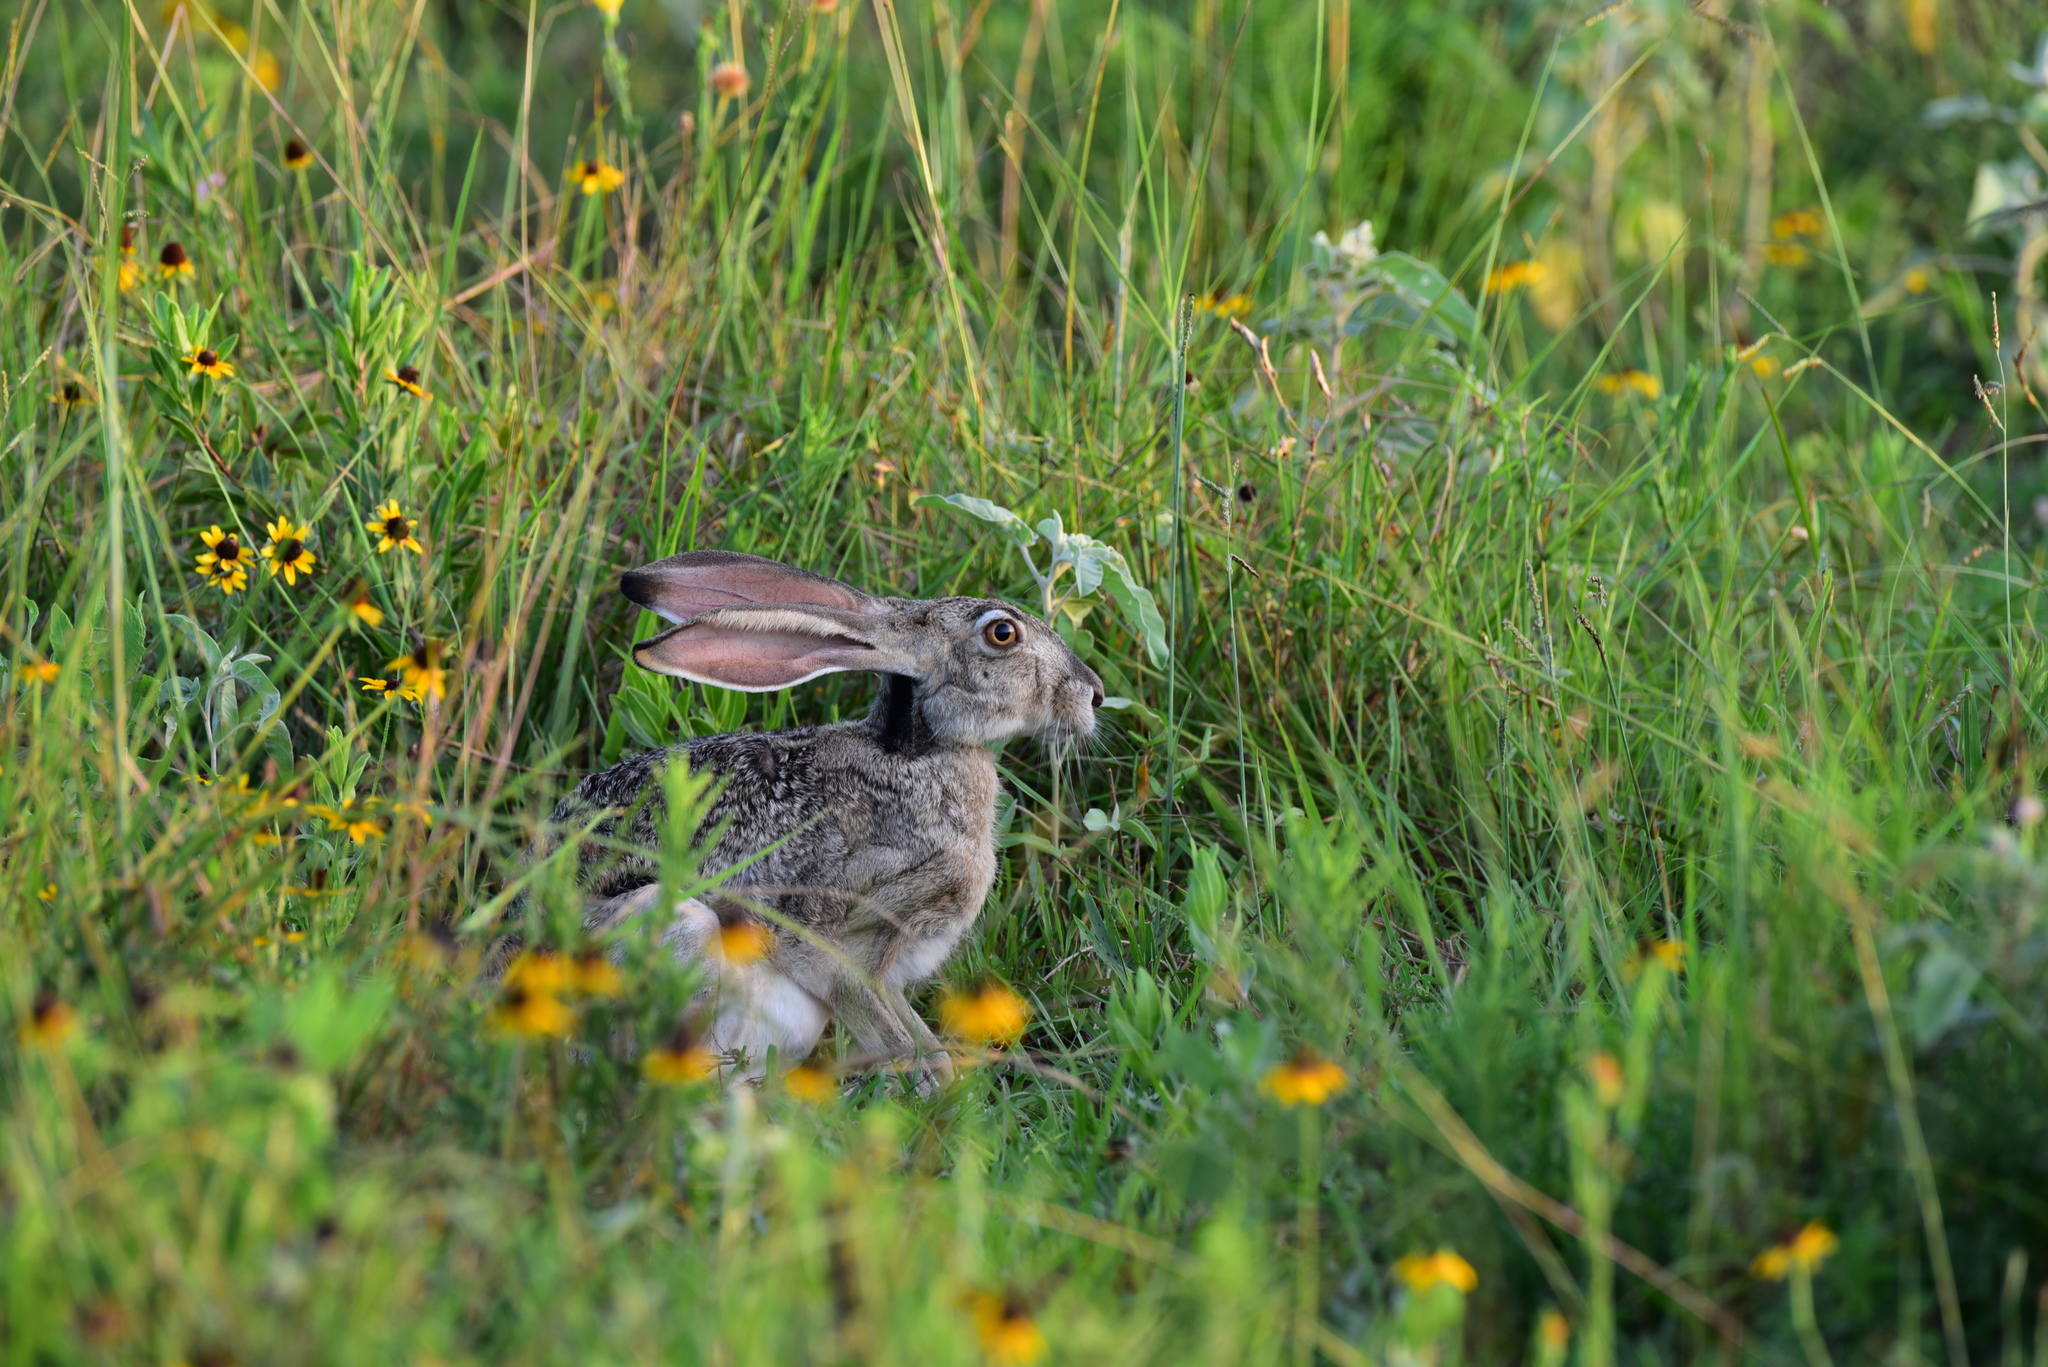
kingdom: Animalia
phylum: Chordata
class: Mammalia
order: Lagomorpha
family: Leporidae
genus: Lepus
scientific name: Lepus californicus
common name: Black-tailed jackrabbit
